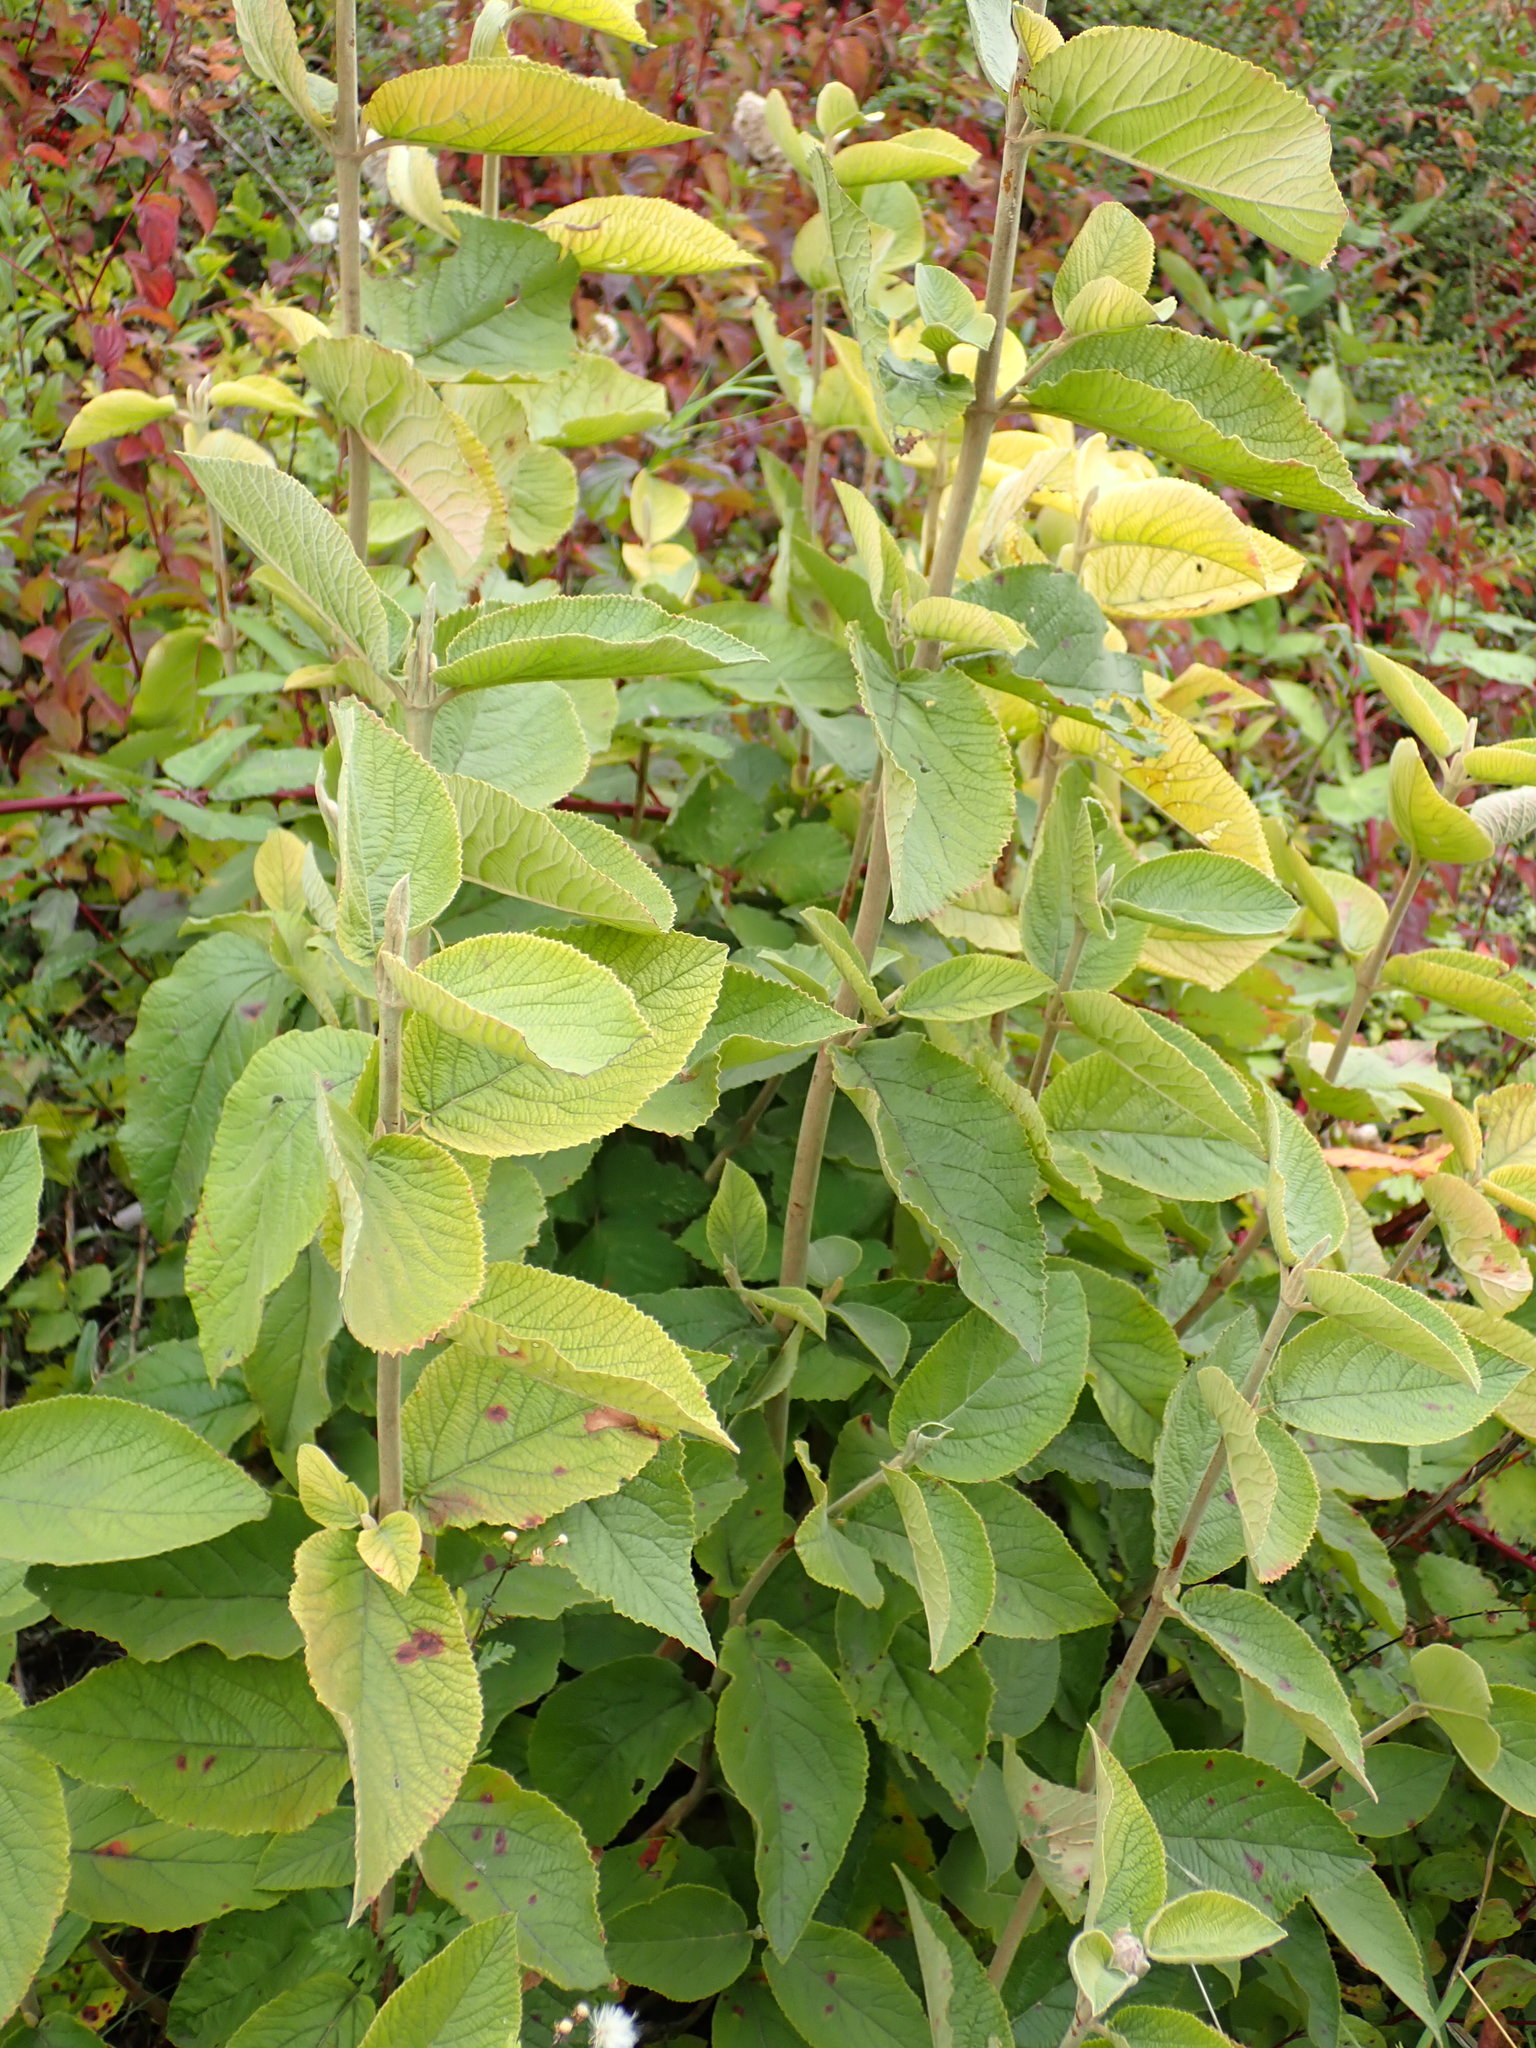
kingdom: Plantae
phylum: Tracheophyta
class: Magnoliopsida
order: Dipsacales
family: Viburnaceae
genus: Viburnum
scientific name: Viburnum lantana
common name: Wayfaring tree
